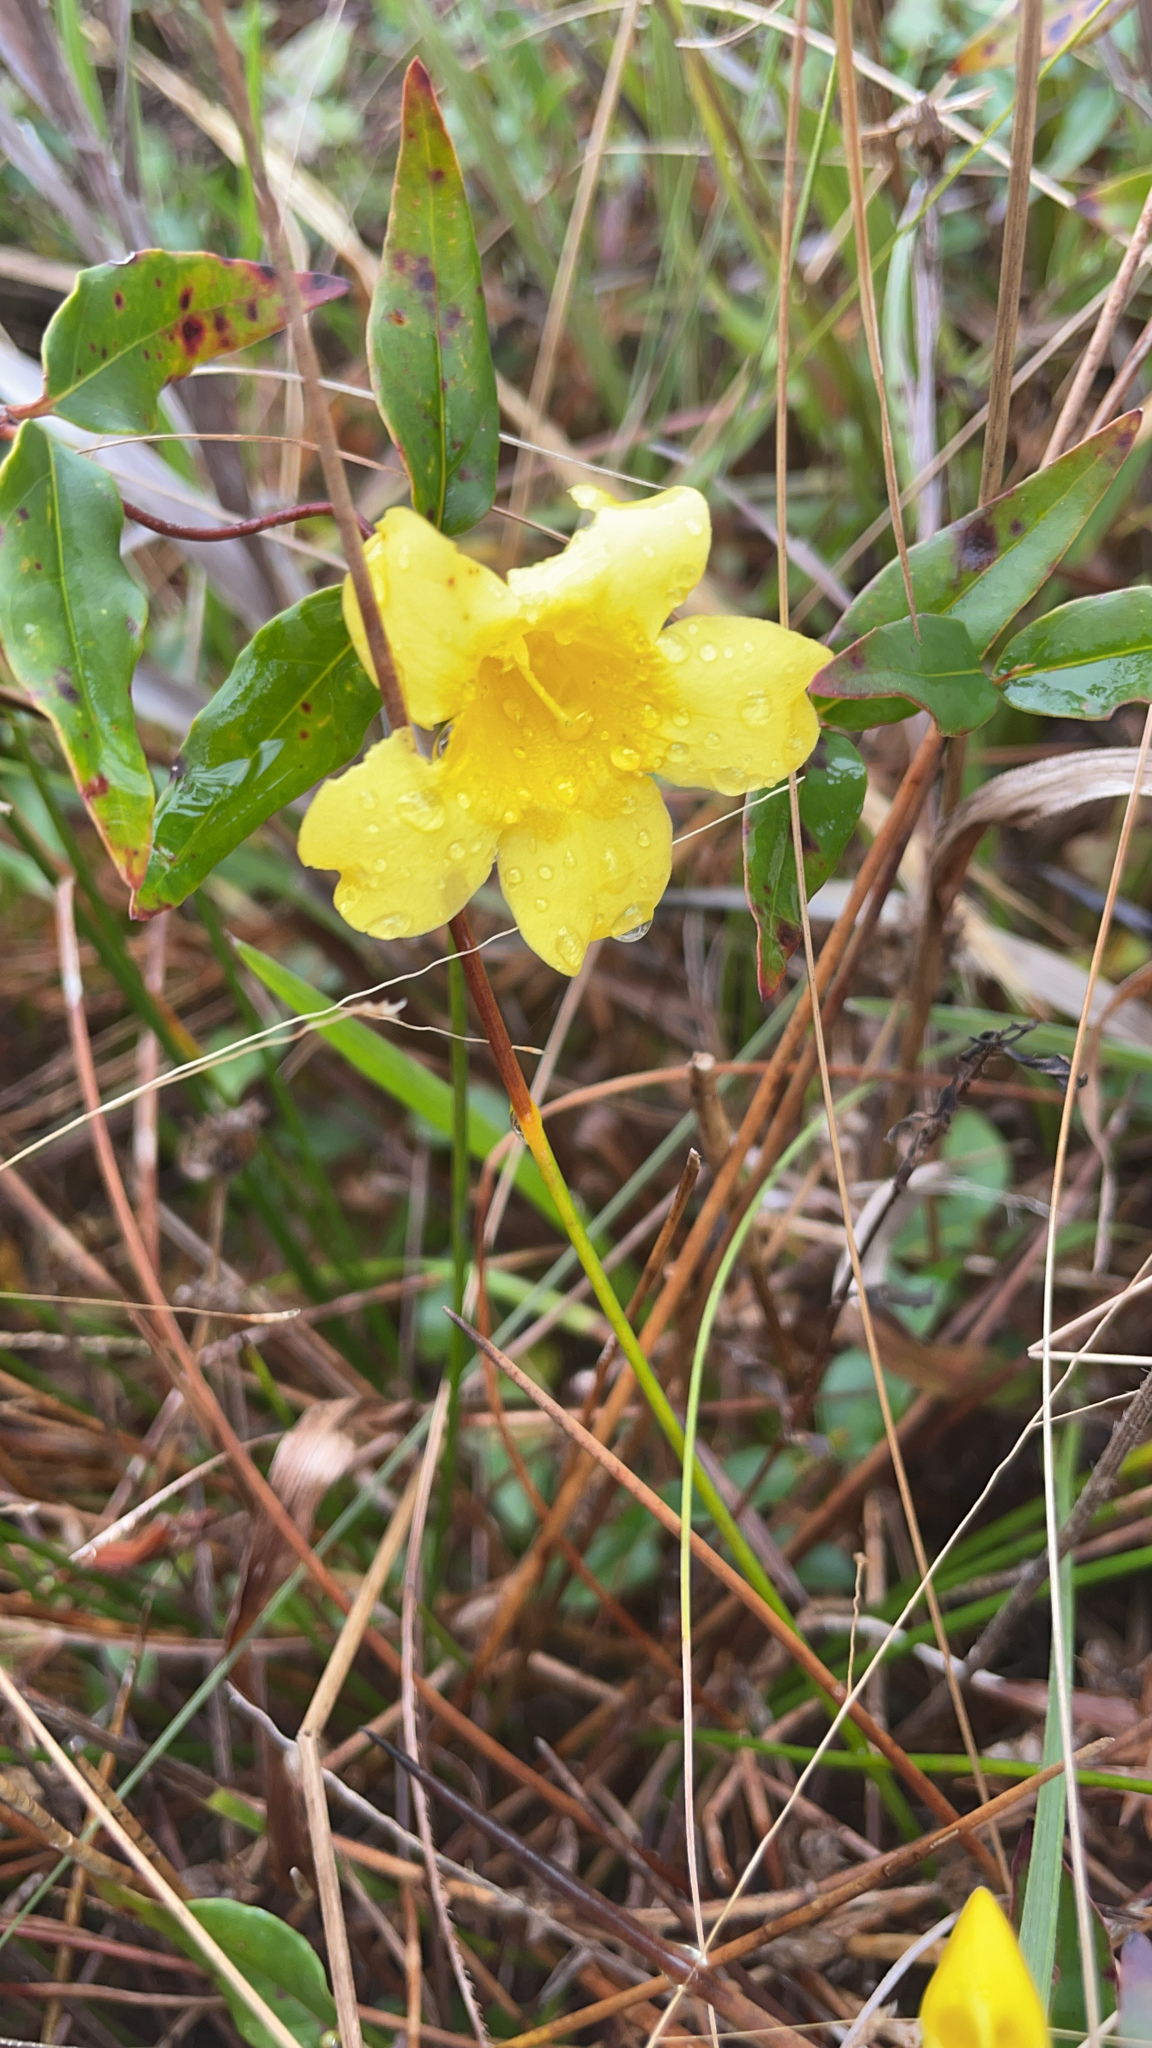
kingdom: Plantae
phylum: Tracheophyta
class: Magnoliopsida
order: Gentianales
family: Gelsemiaceae
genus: Gelsemium
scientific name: Gelsemium sempervirens
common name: Carolina-jasmine
